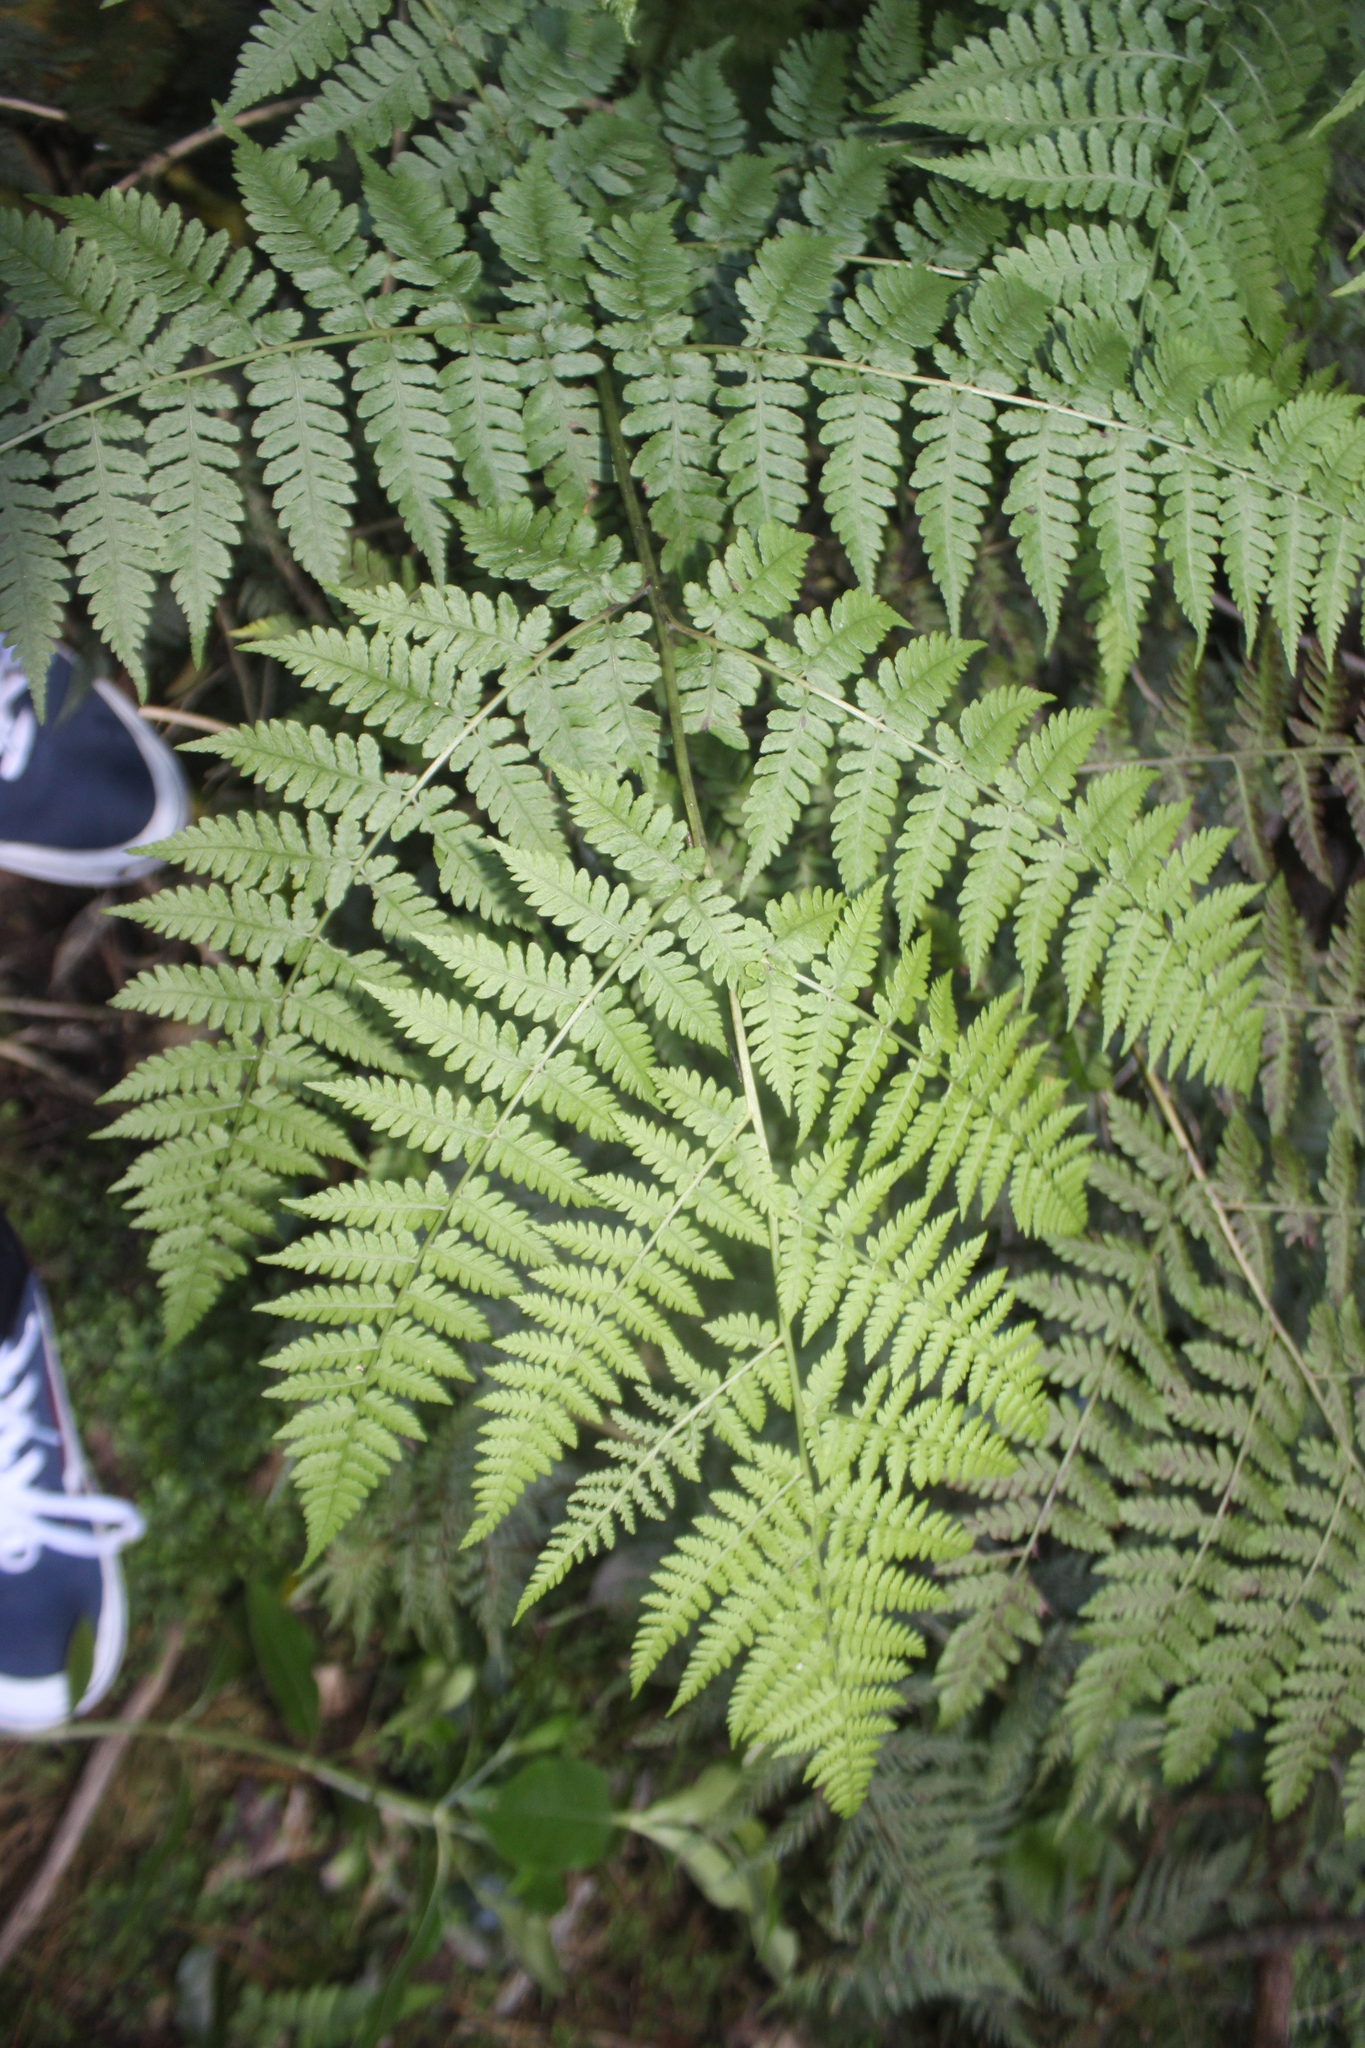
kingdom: Plantae
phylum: Tracheophyta
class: Polypodiopsida
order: Polypodiales
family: Athyriaceae
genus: Diplazium
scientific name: Diplazium australe
